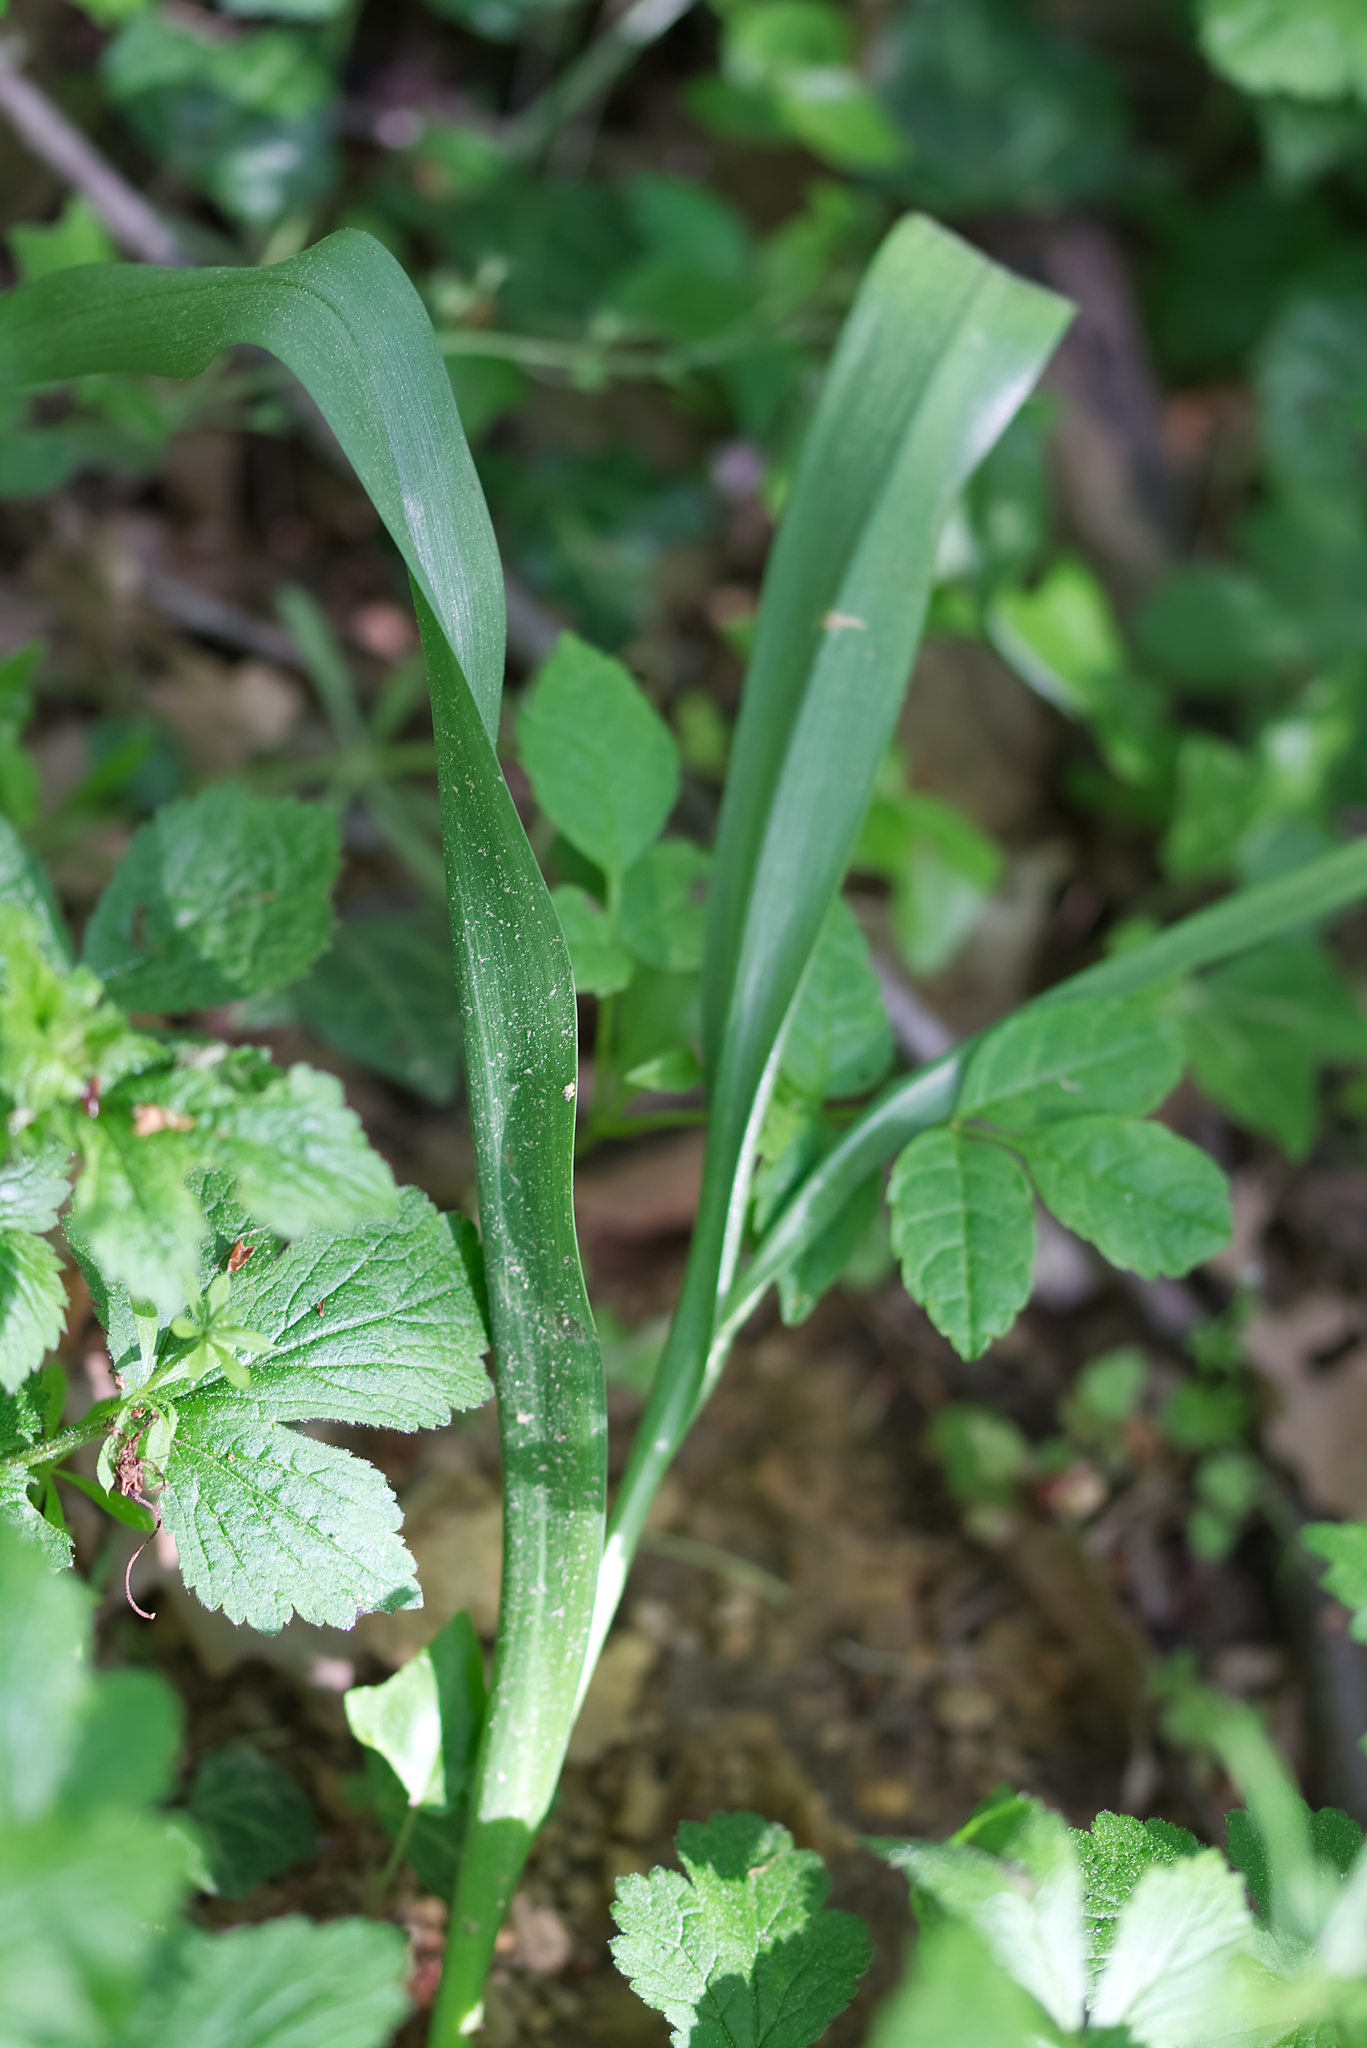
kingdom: Plantae
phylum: Tracheophyta
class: Liliopsida
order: Liliales
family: Colchicaceae
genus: Colchicum
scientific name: Colchicum autumnale
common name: Autumn crocus
